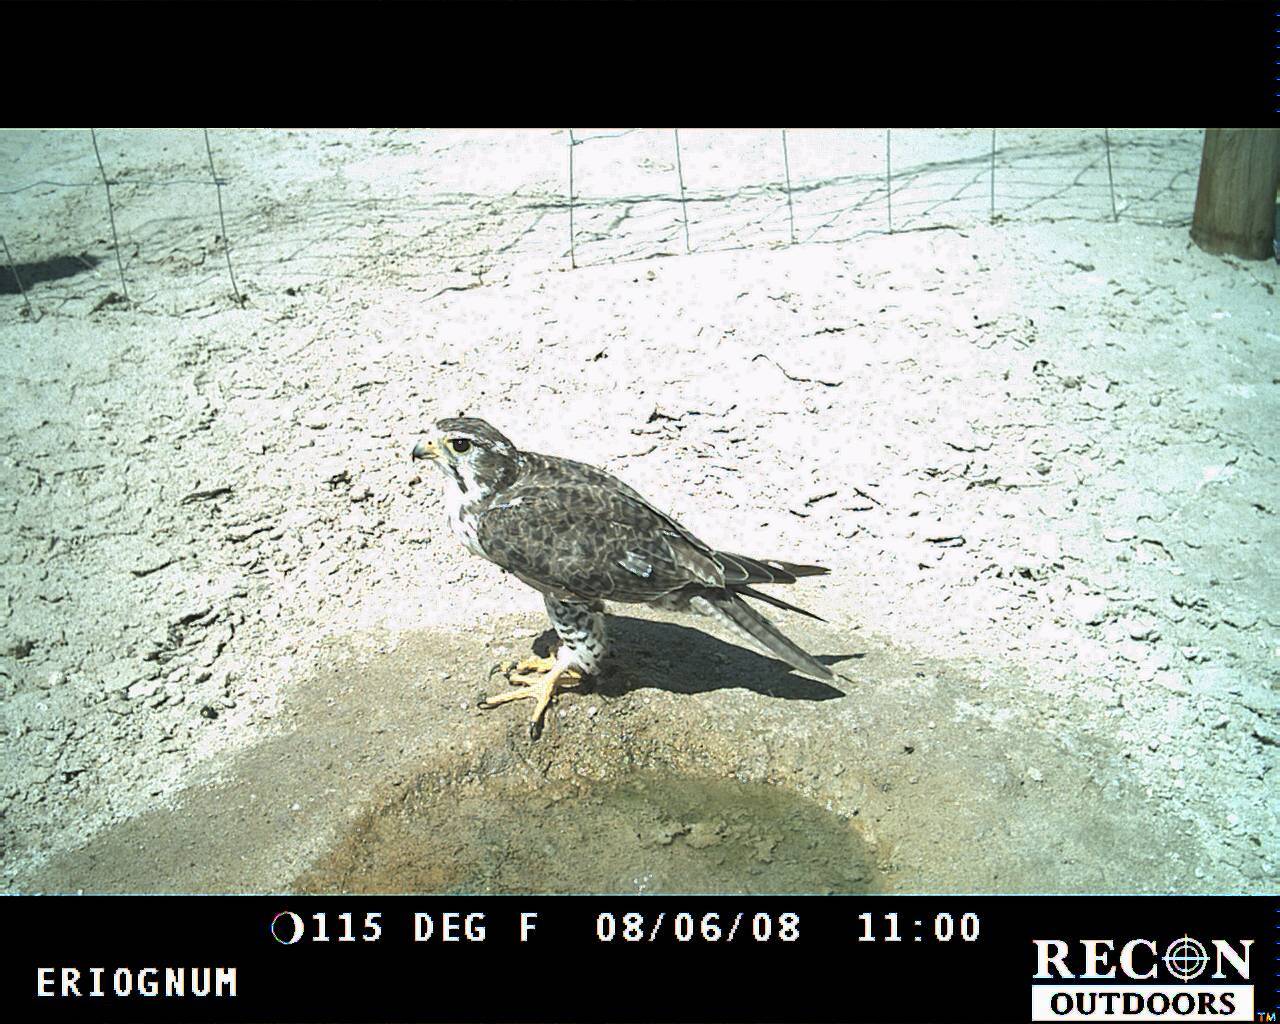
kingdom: Animalia
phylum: Chordata
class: Aves
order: Falconiformes
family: Falconidae
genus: Falco
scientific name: Falco mexicanus
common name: Prairie falcon
